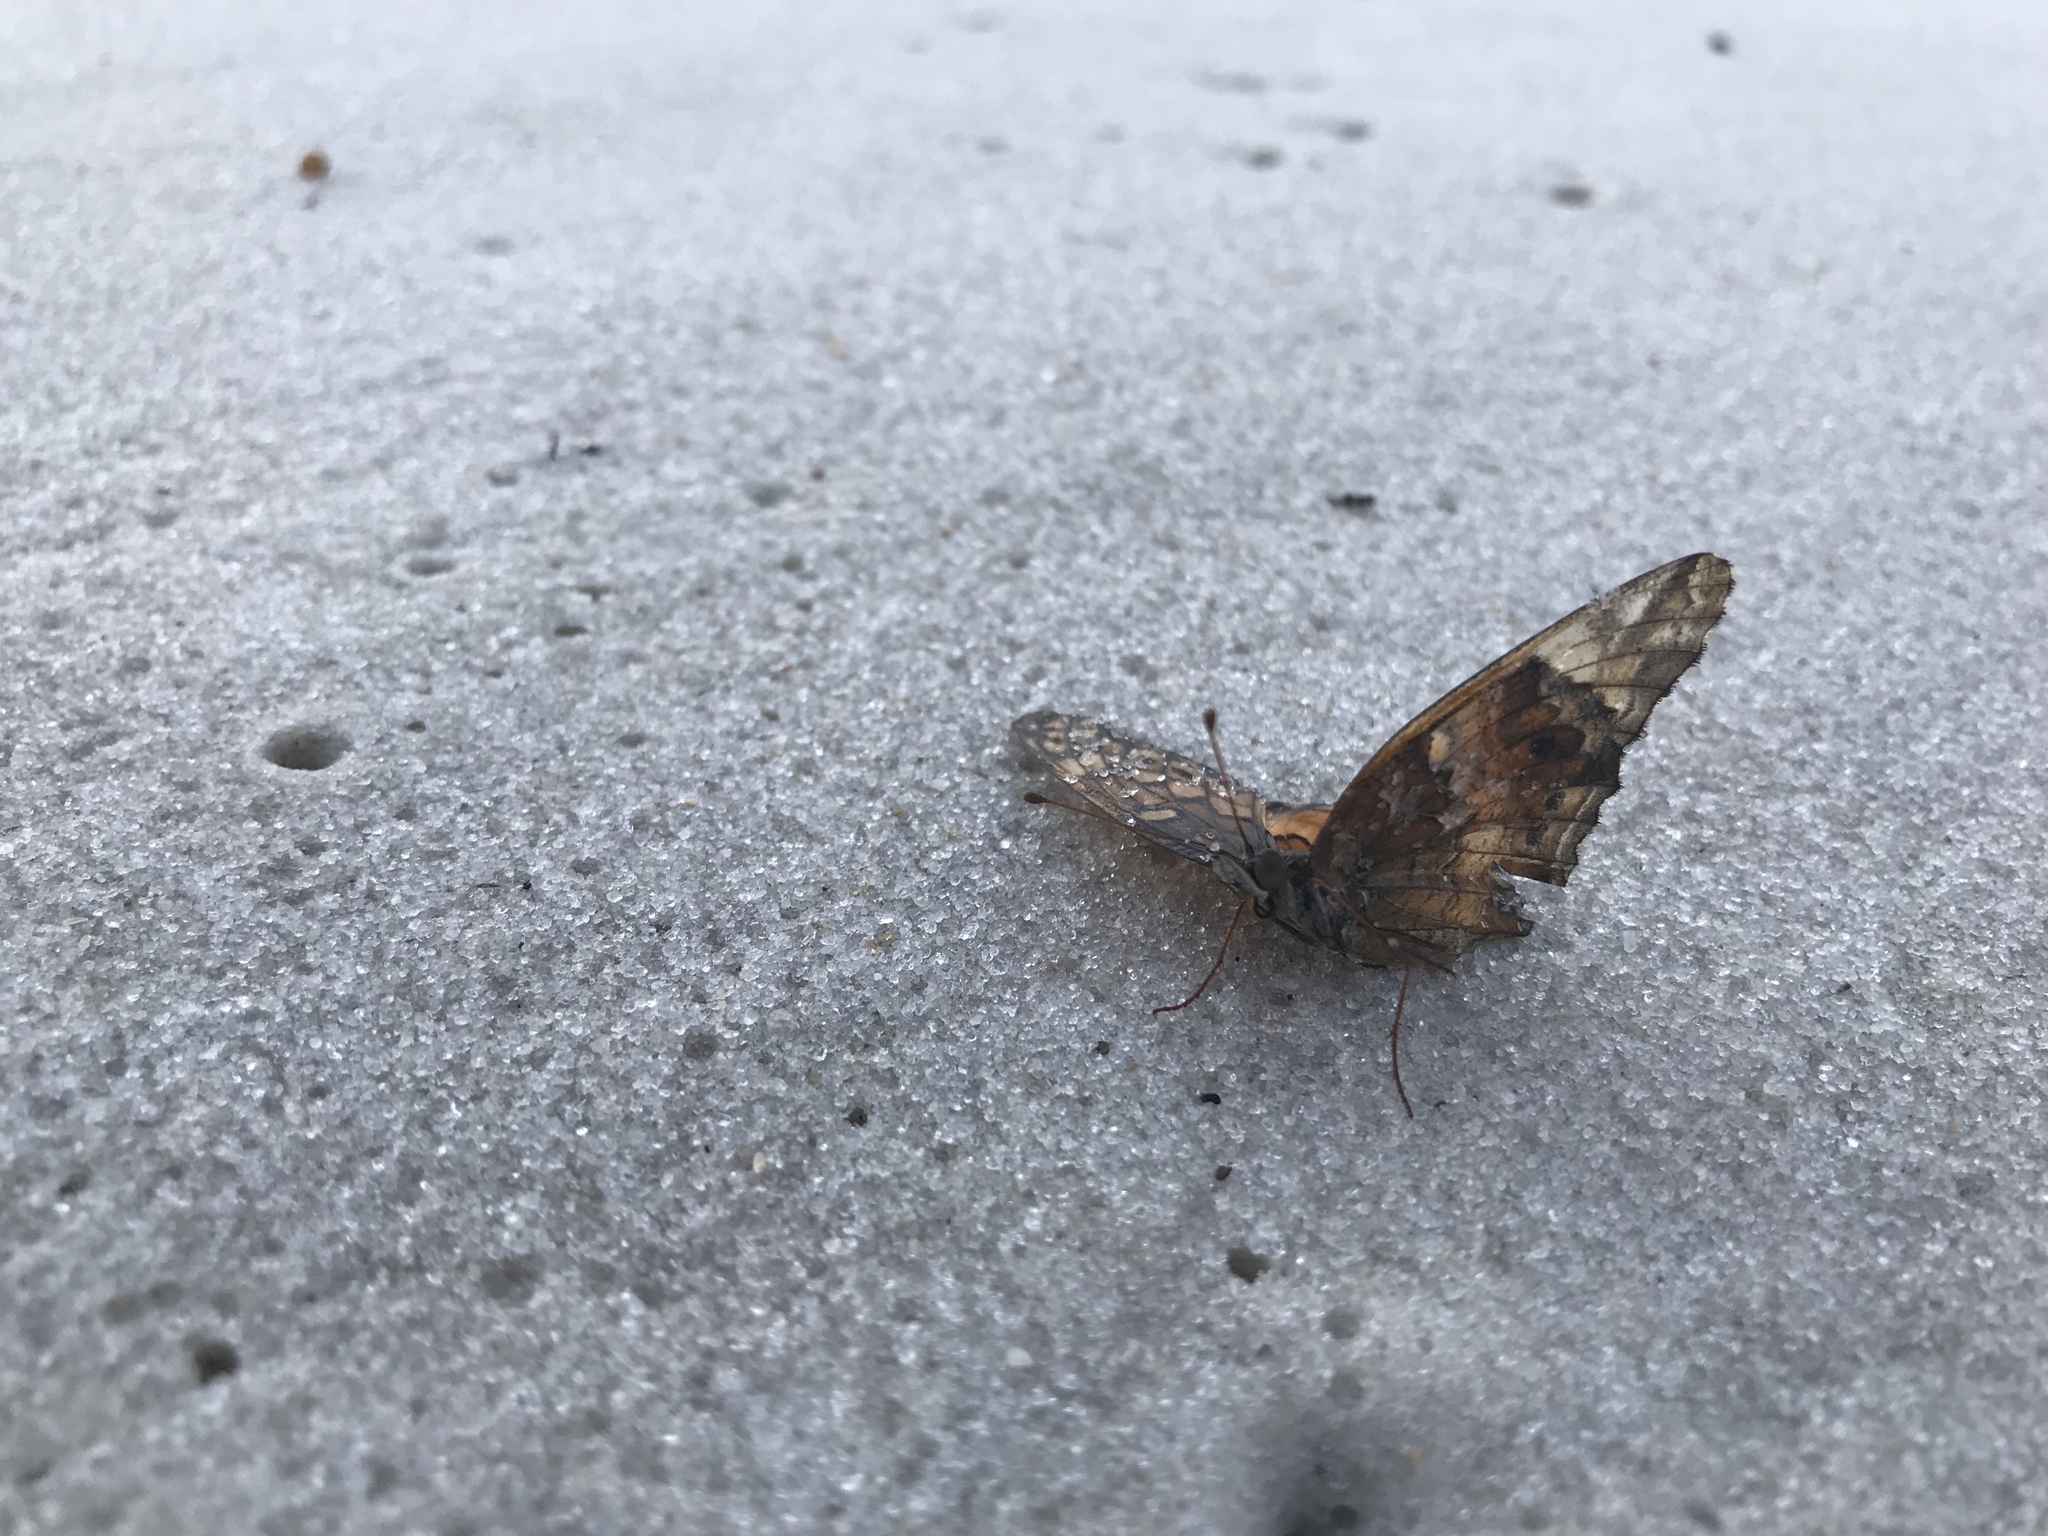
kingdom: Animalia
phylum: Arthropoda
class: Insecta
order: Lepidoptera
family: Nymphalidae
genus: Euptoieta
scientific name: Euptoieta claudia
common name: Variegated fritillary
